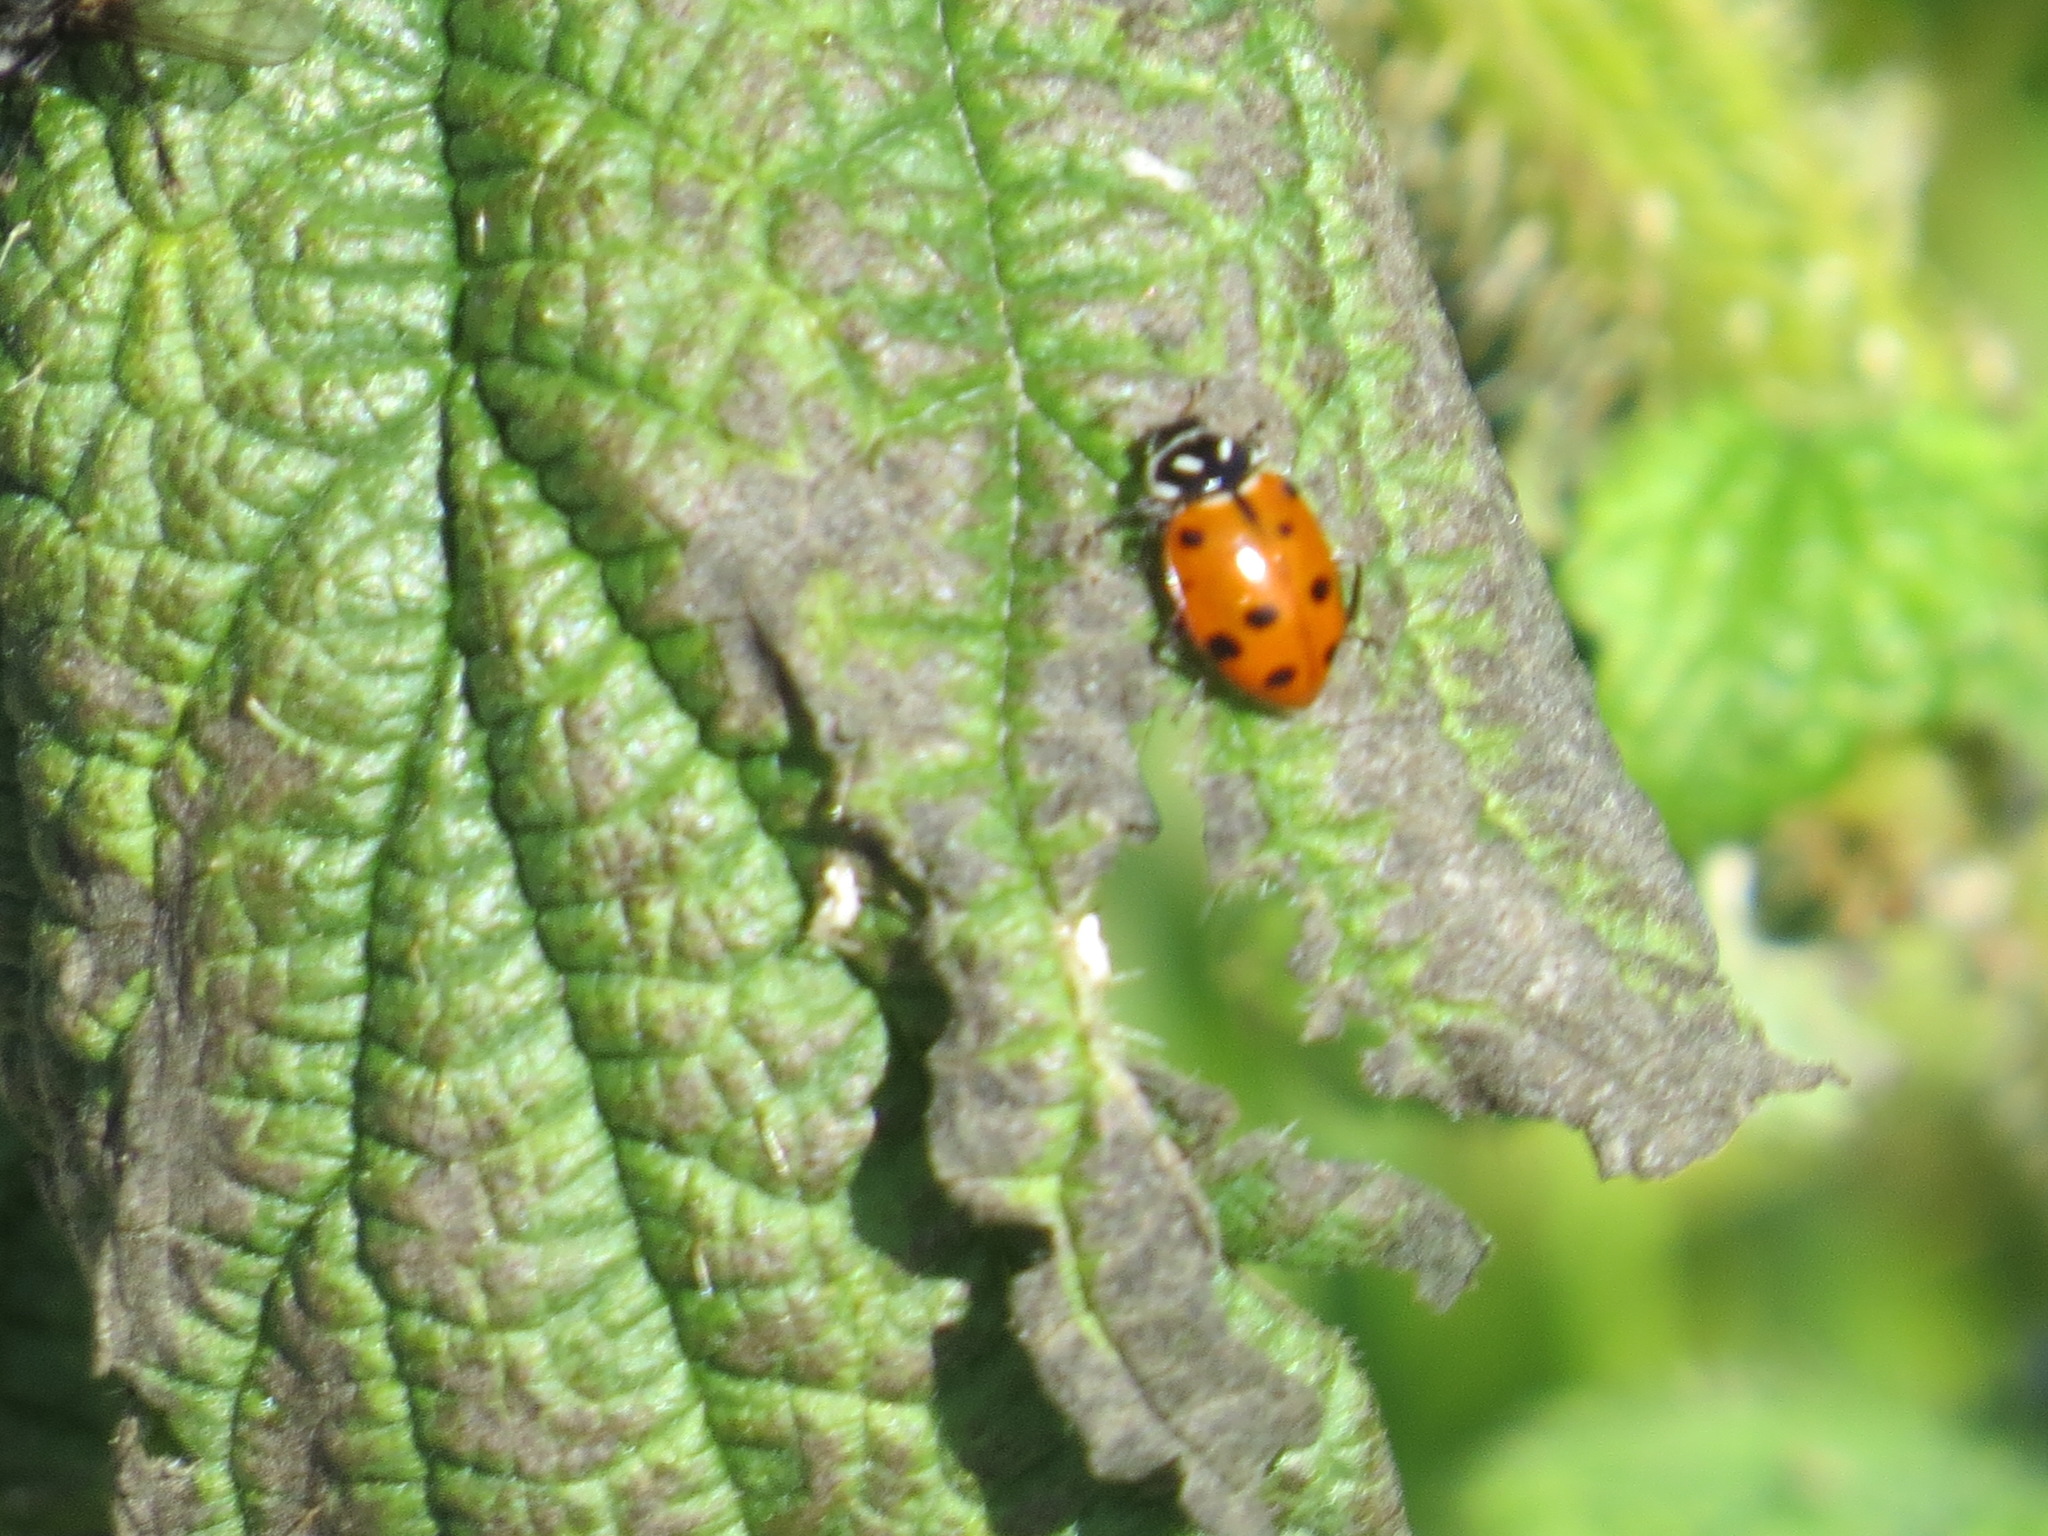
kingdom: Animalia
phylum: Arthropoda
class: Insecta
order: Coleoptera
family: Coccinellidae
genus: Hippodamia
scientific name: Hippodamia convergens
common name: Convergent lady beetle
